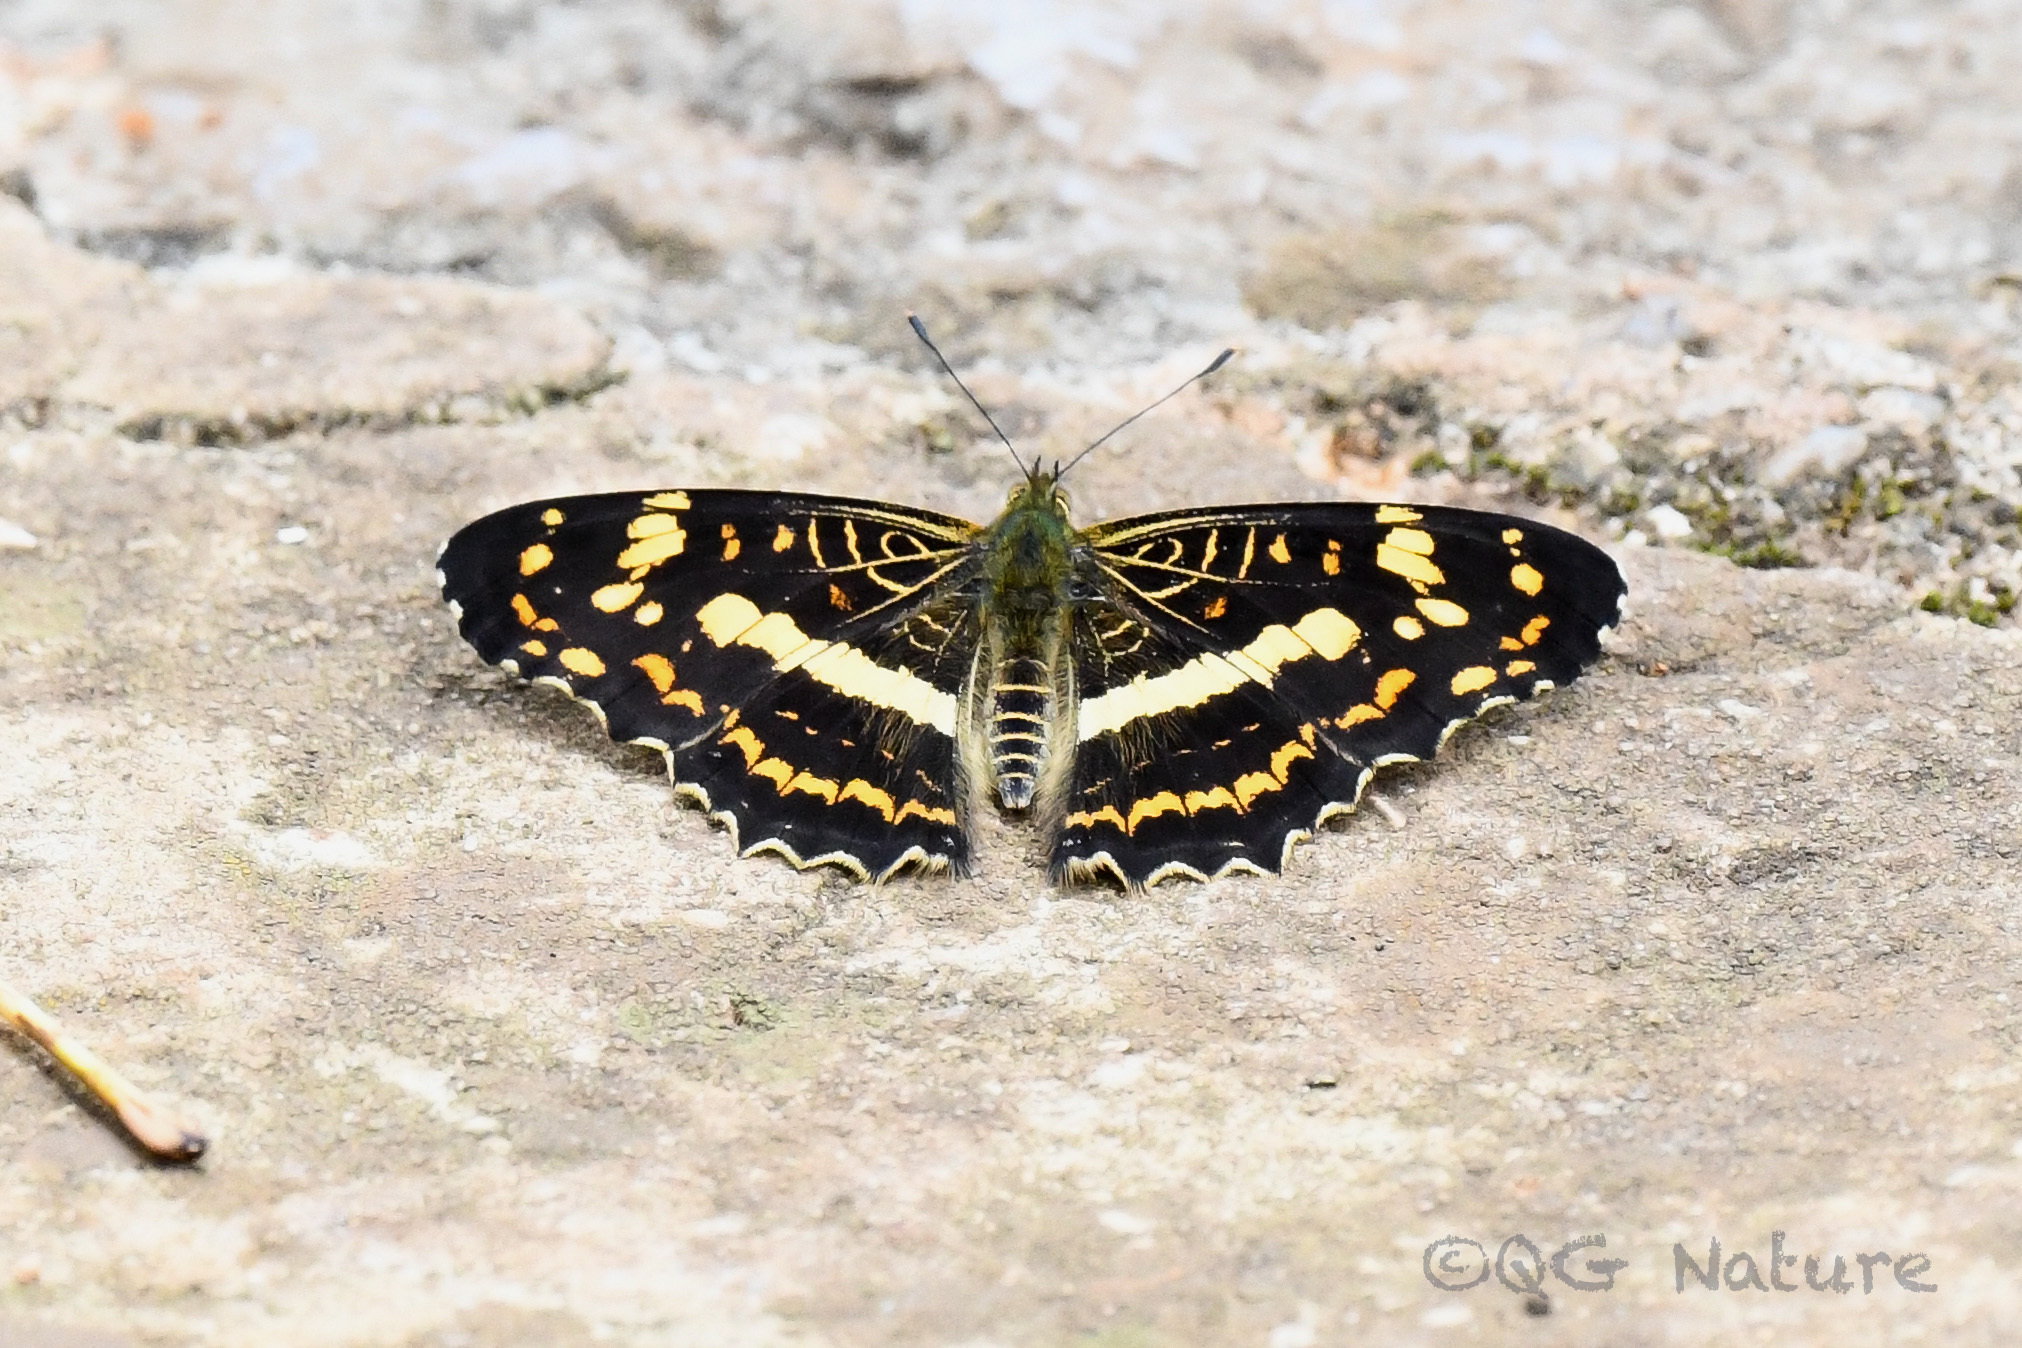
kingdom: Animalia
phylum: Arthropoda
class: Insecta
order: Lepidoptera
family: Nymphalidae
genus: Araschnia
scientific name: Araschnia prorsoides
